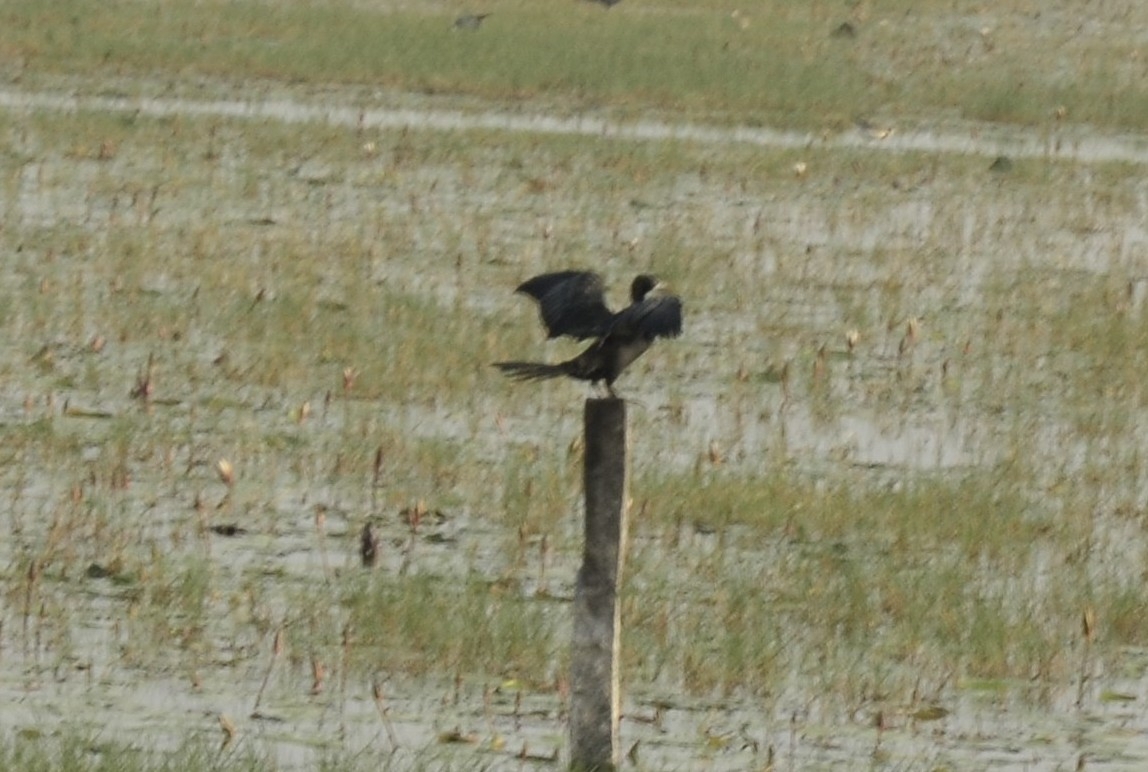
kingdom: Animalia
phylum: Chordata
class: Aves
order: Suliformes
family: Phalacrocoracidae
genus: Microcarbo
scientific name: Microcarbo niger
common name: Little cormorant
